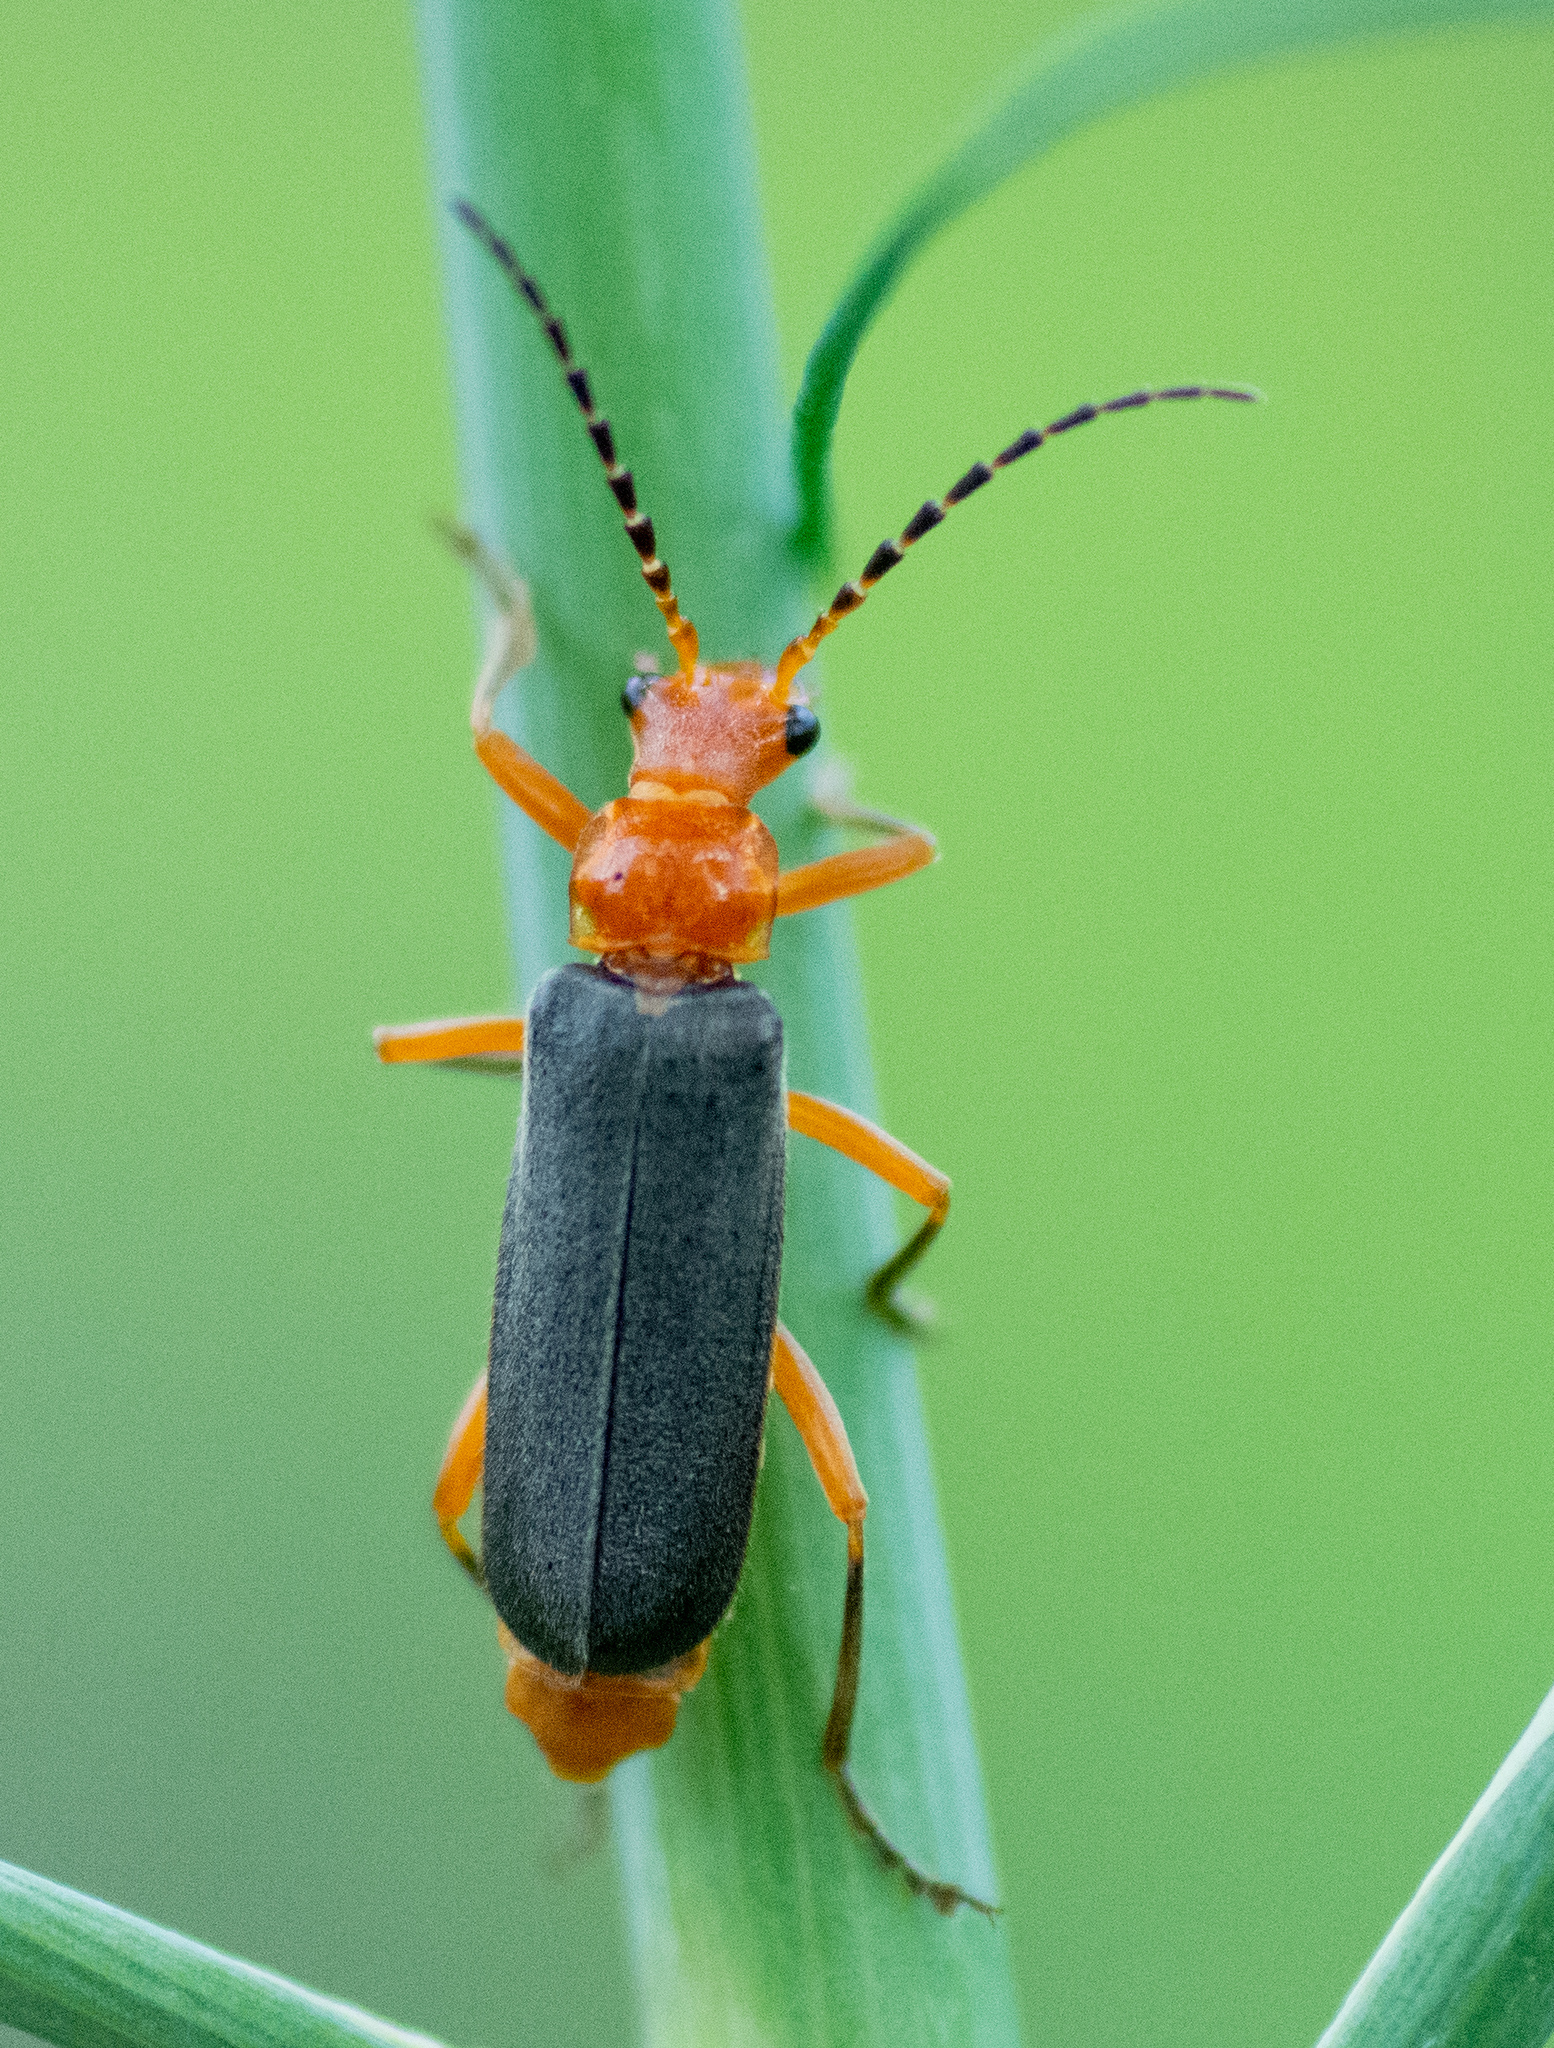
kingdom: Animalia
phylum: Arthropoda
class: Insecta
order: Coleoptera
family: Cantharidae
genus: Podabrus
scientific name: Podabrus tomentosus
